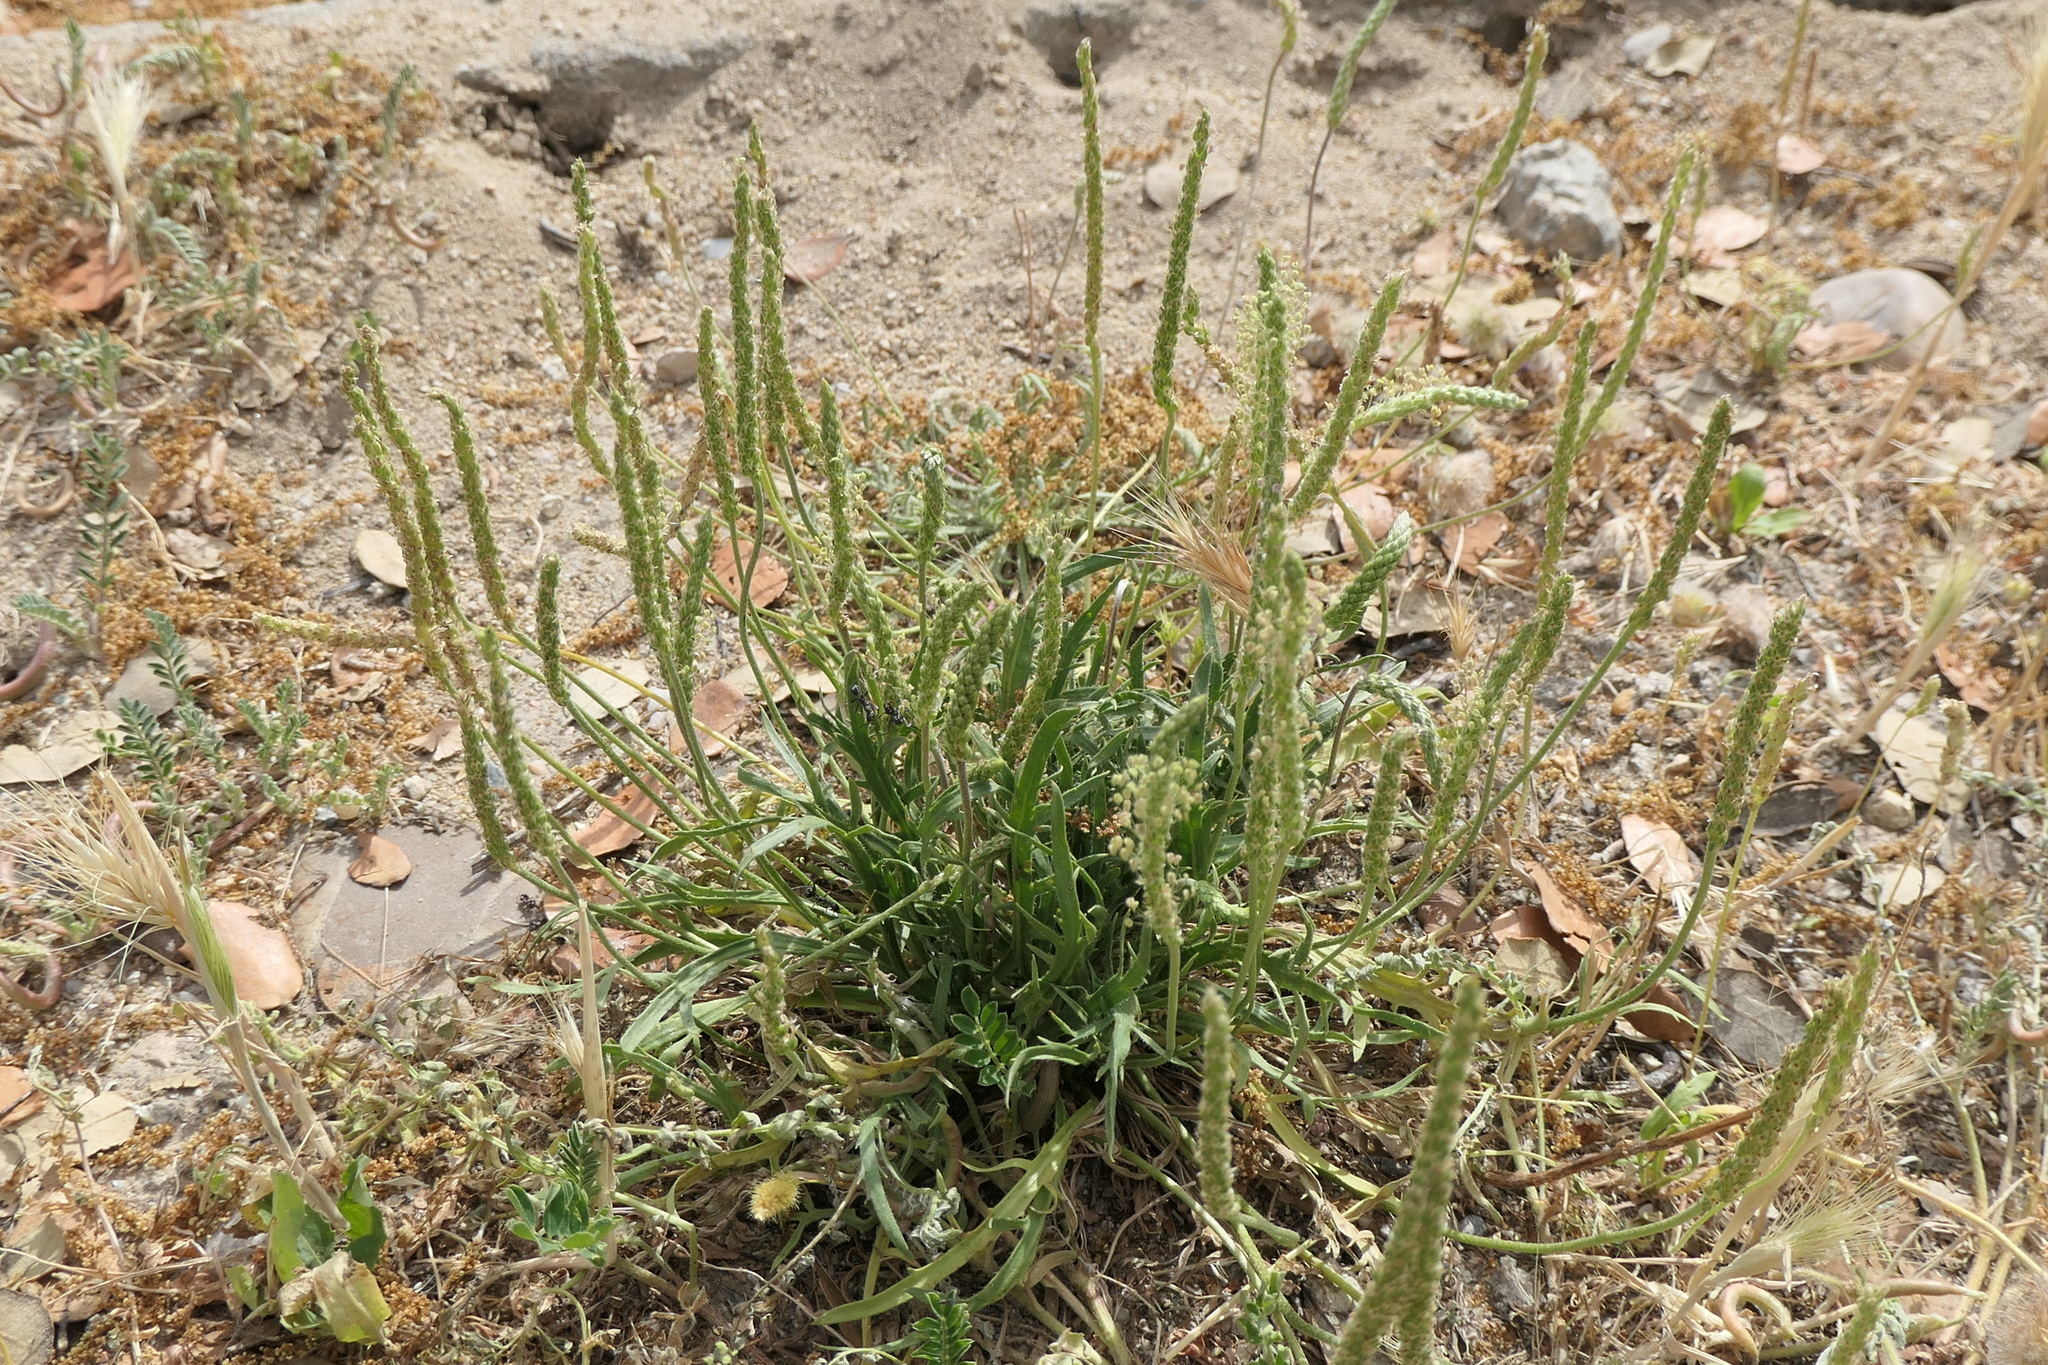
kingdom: Plantae
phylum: Tracheophyta
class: Magnoliopsida
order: Lamiales
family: Plantaginaceae
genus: Plantago
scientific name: Plantago coronopus
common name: Buck's-horn plantain
